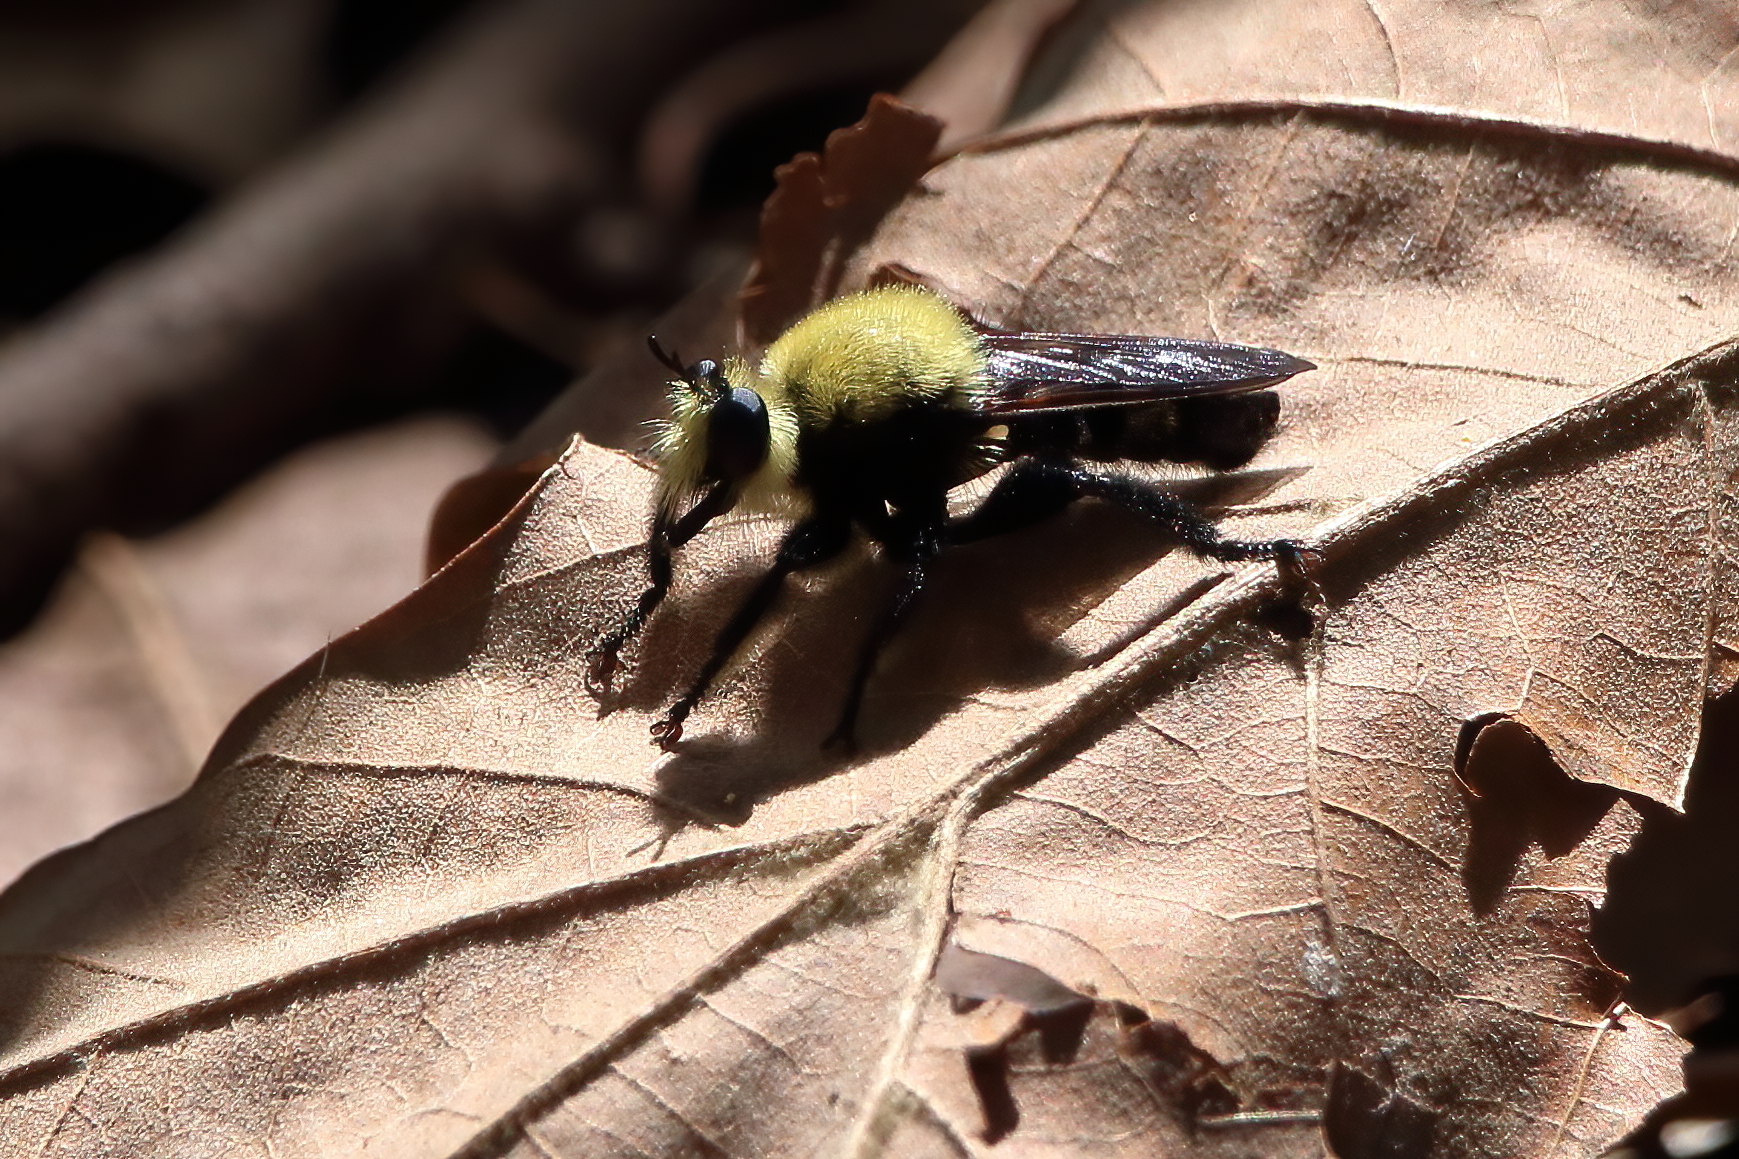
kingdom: Animalia
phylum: Arthropoda
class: Insecta
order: Diptera
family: Asilidae
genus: Laphria
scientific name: Laphria virginica
